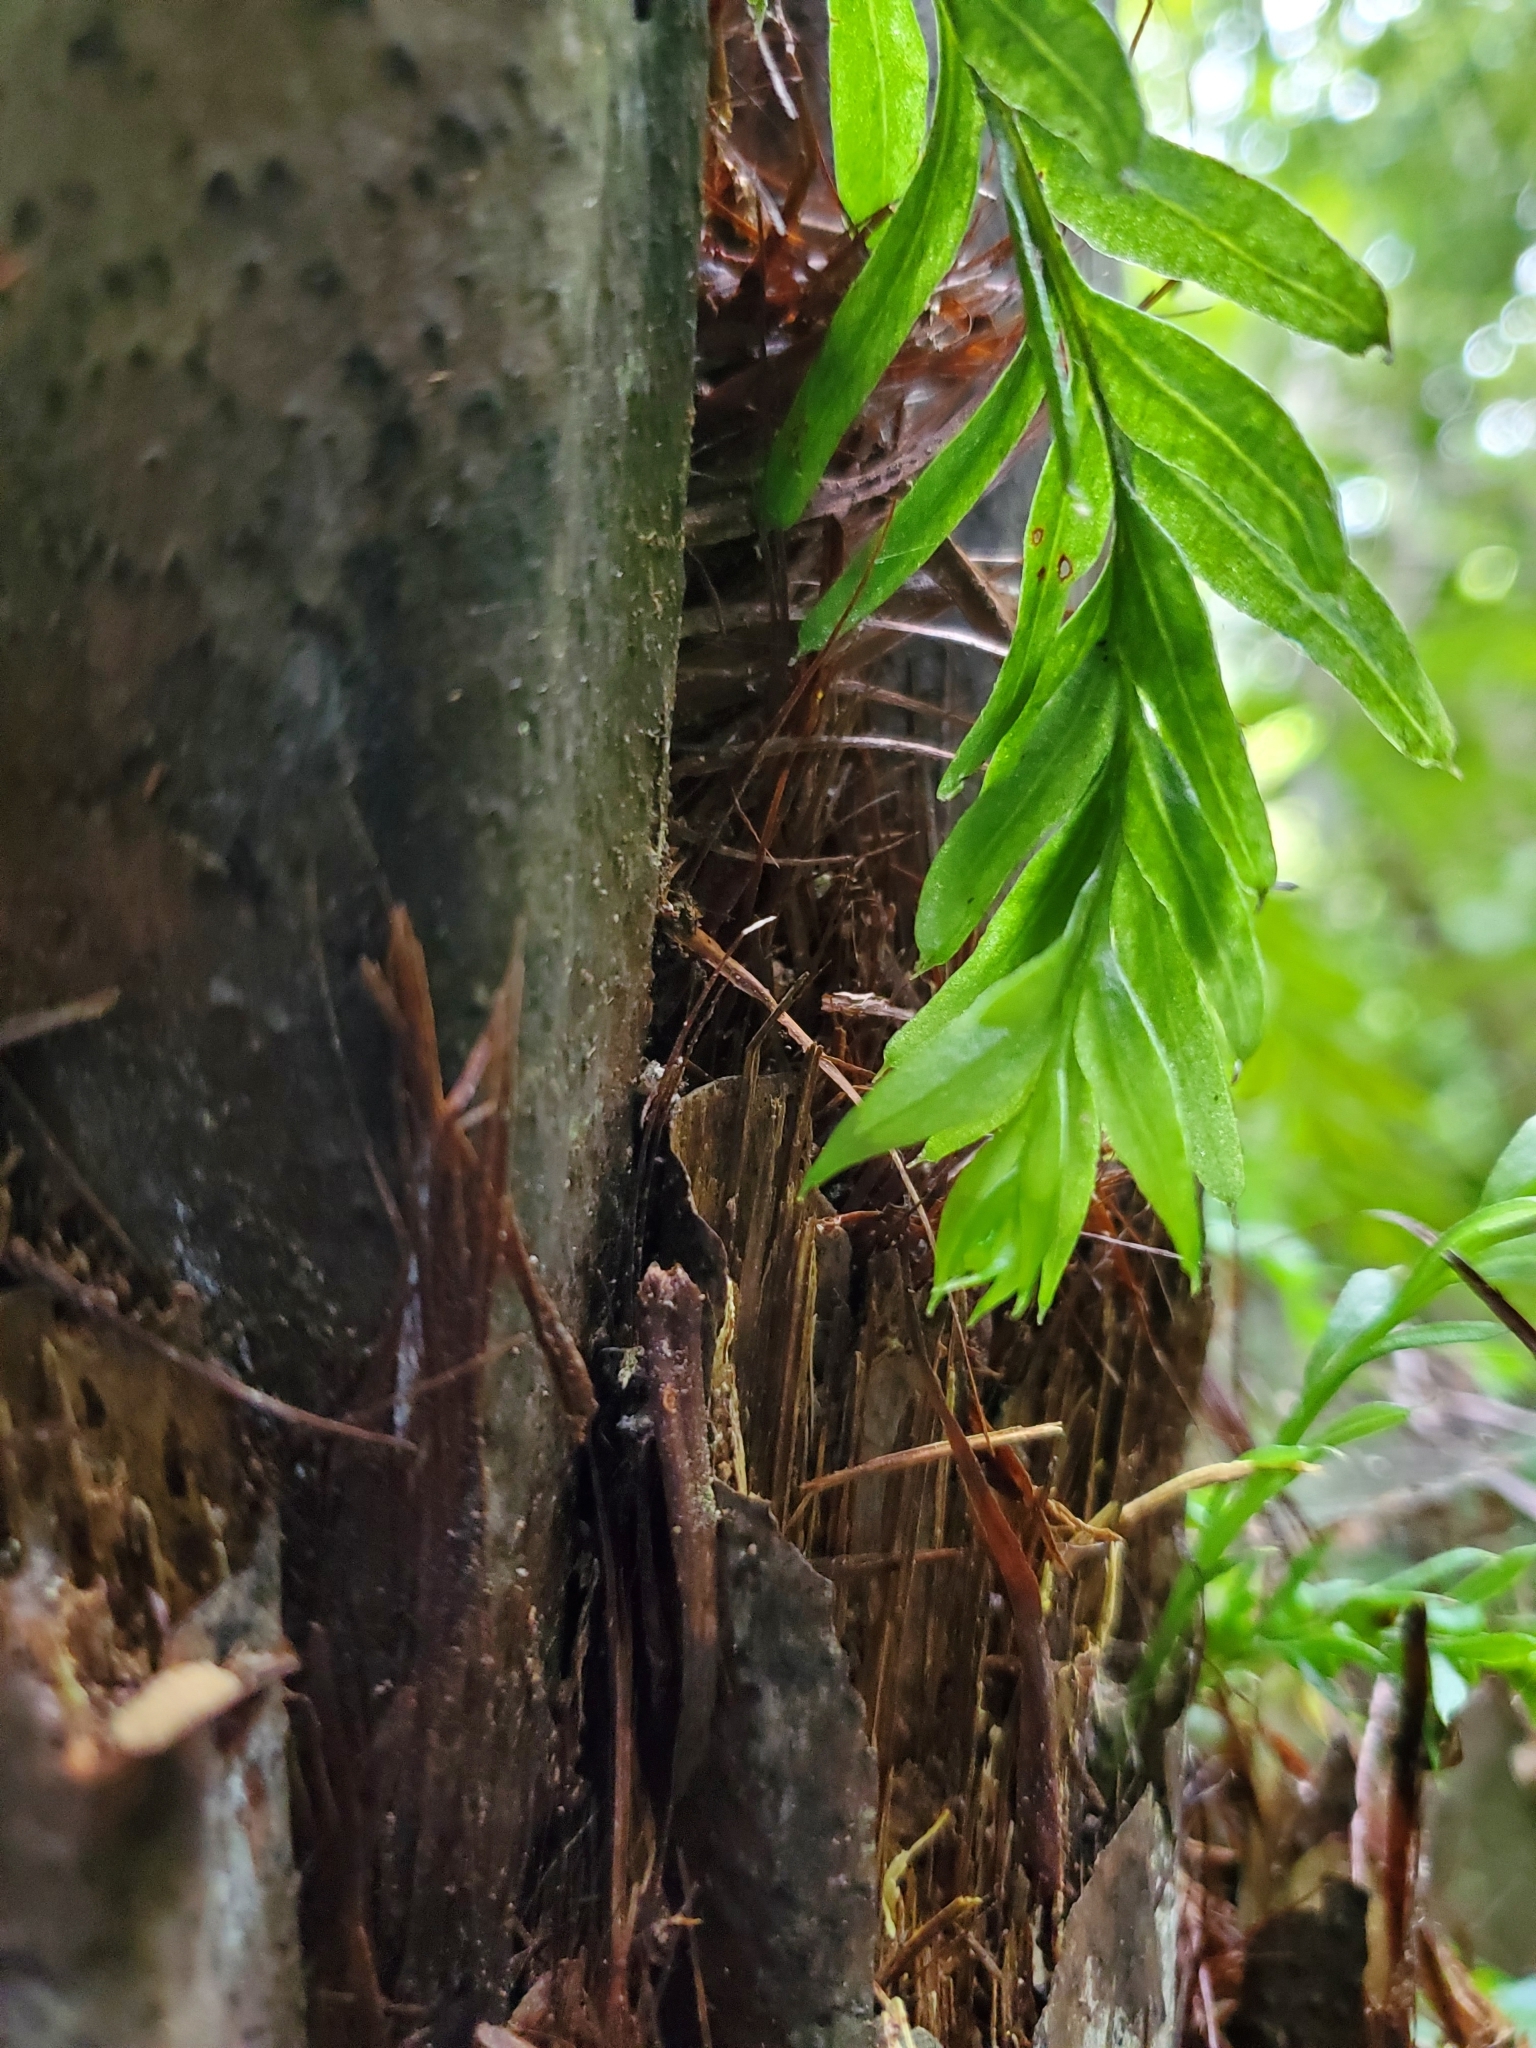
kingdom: Plantae
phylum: Tracheophyta
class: Polypodiopsida
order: Psilotales
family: Psilotaceae
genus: Tmesipteris
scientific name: Tmesipteris elongata
